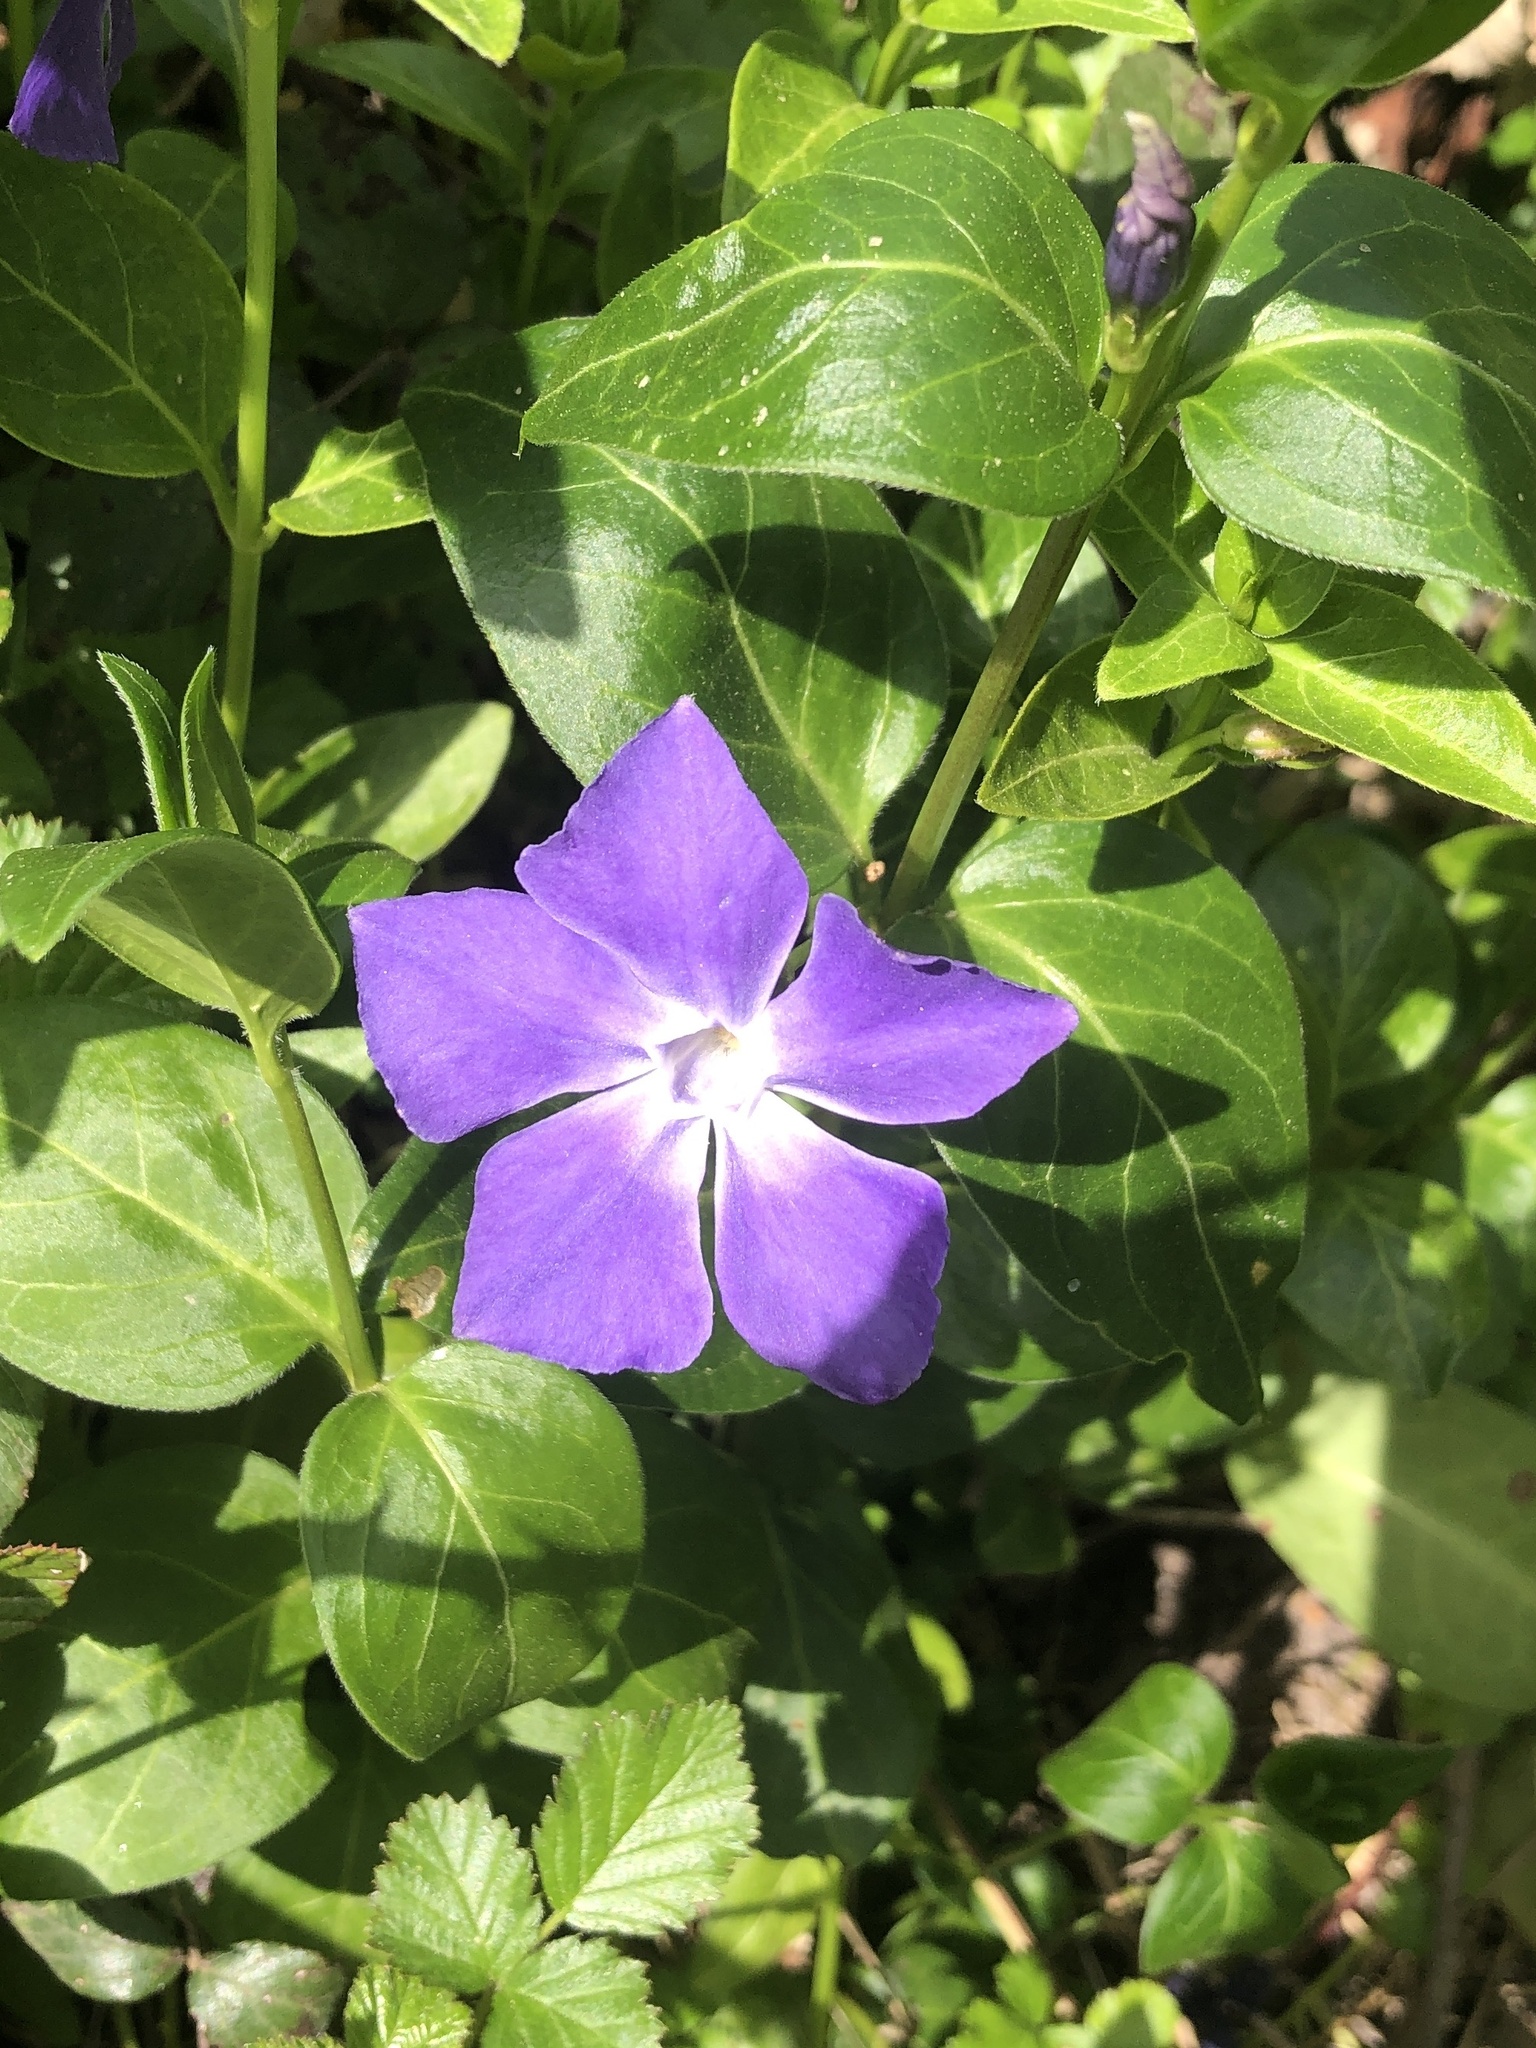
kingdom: Plantae
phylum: Tracheophyta
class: Magnoliopsida
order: Gentianales
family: Apocynaceae
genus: Vinca
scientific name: Vinca major
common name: Greater periwinkle
